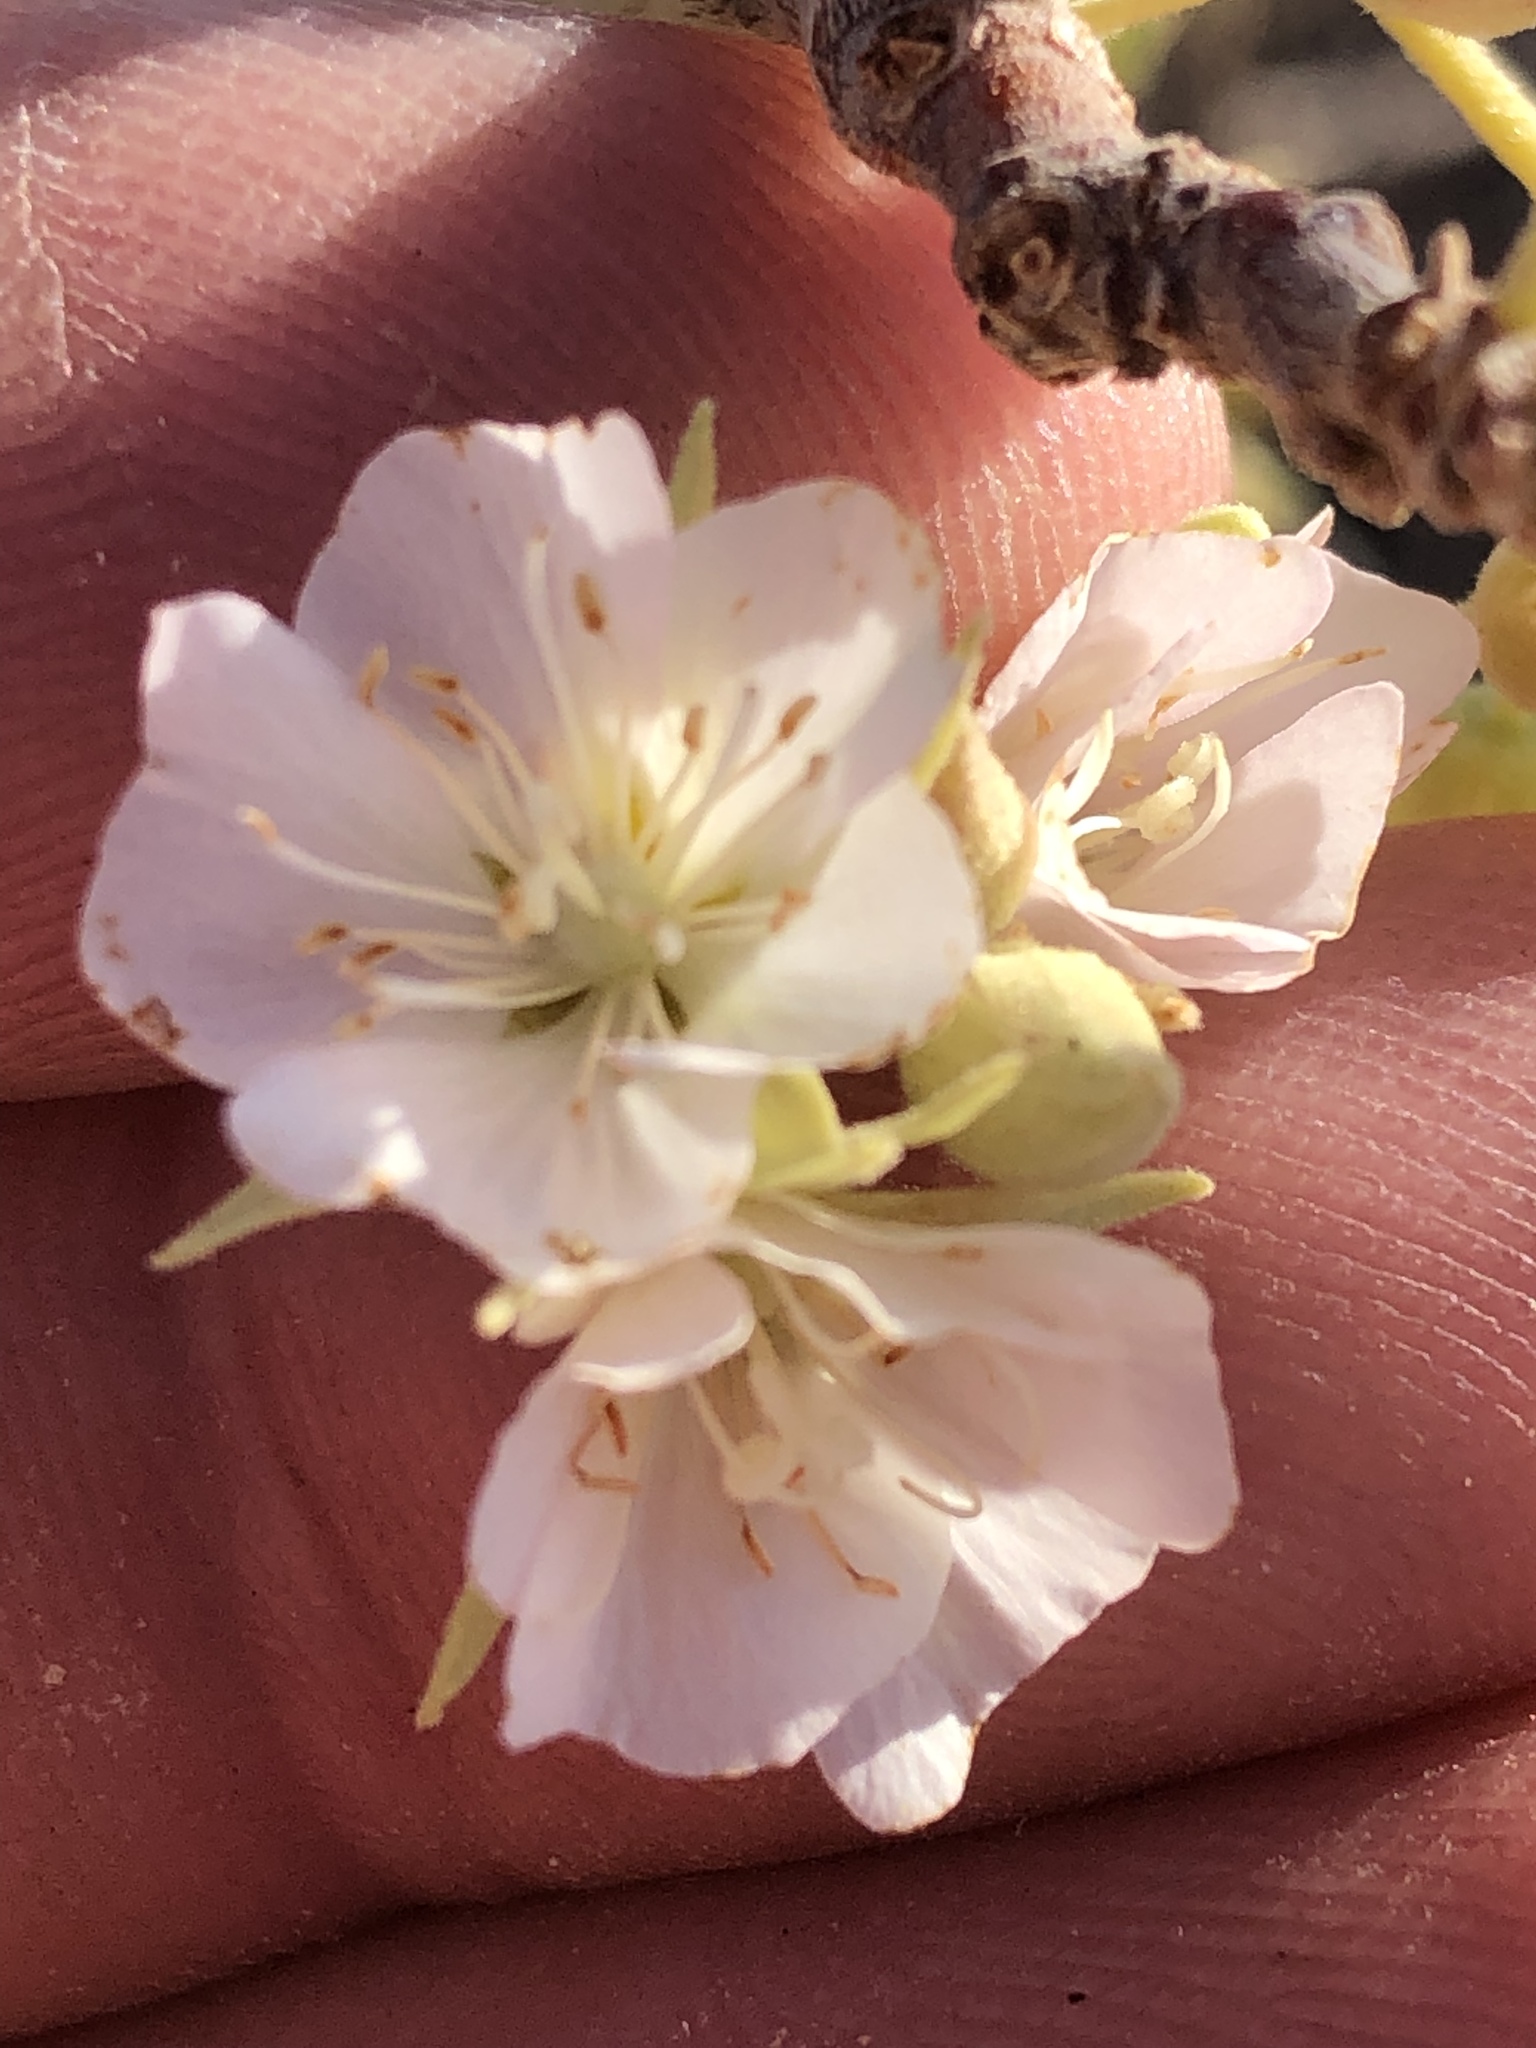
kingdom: Plantae
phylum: Tracheophyta
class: Magnoliopsida
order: Malvales
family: Malvaceae
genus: Dombeya
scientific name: Dombeya rotundifolia
